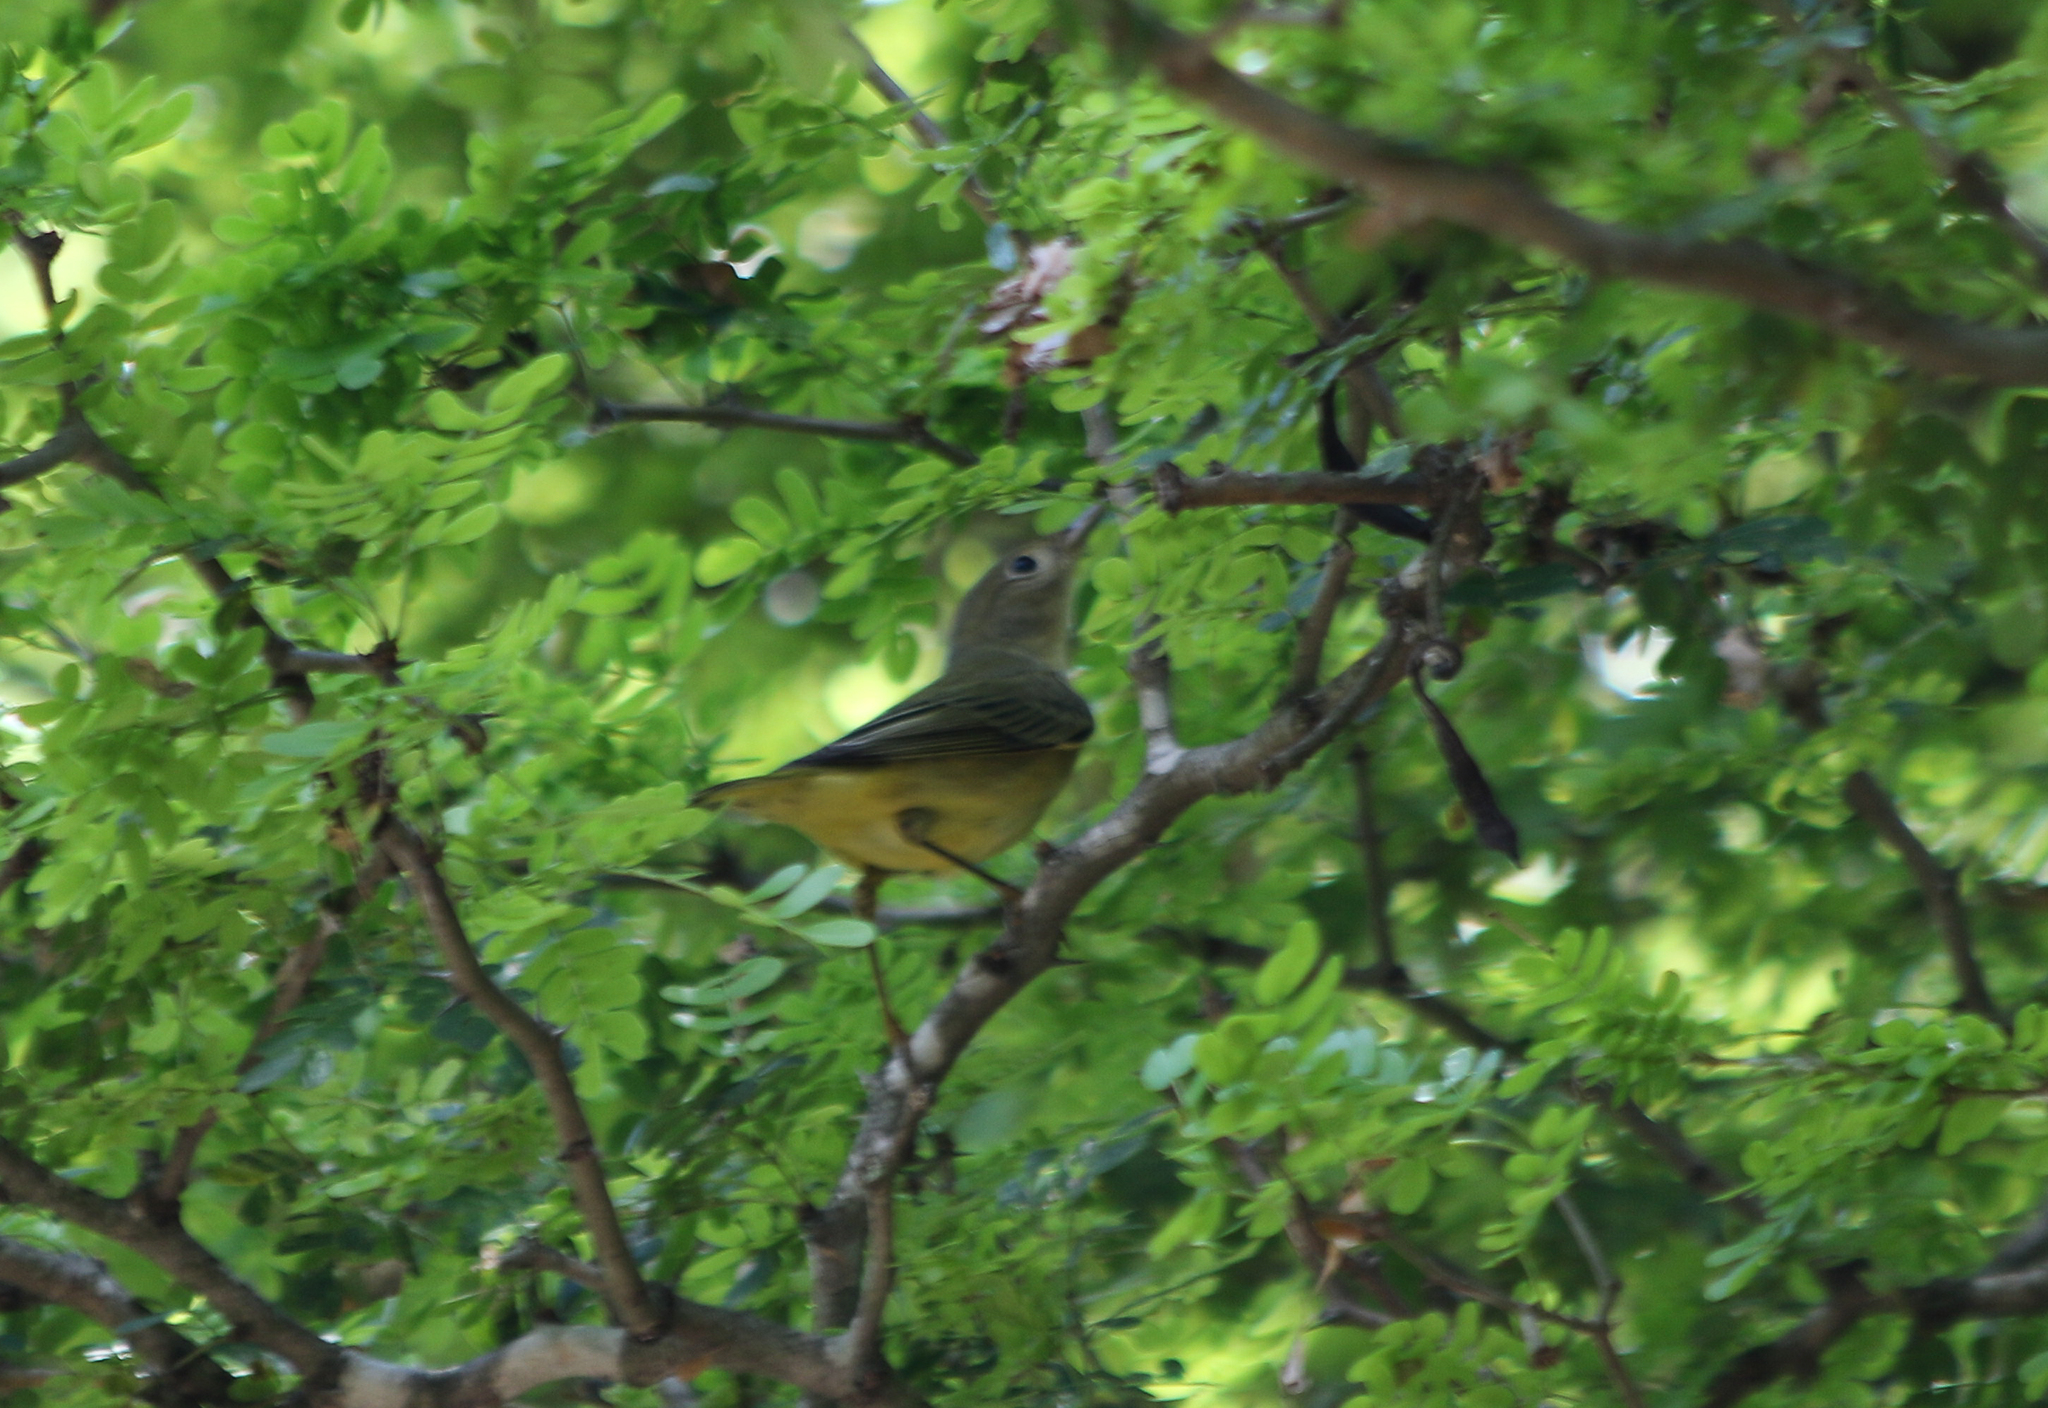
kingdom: Animalia
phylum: Chordata
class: Aves
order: Passeriformes
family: Parulidae
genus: Geothlypis
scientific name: Geothlypis philadelphia
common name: Mourning warbler
